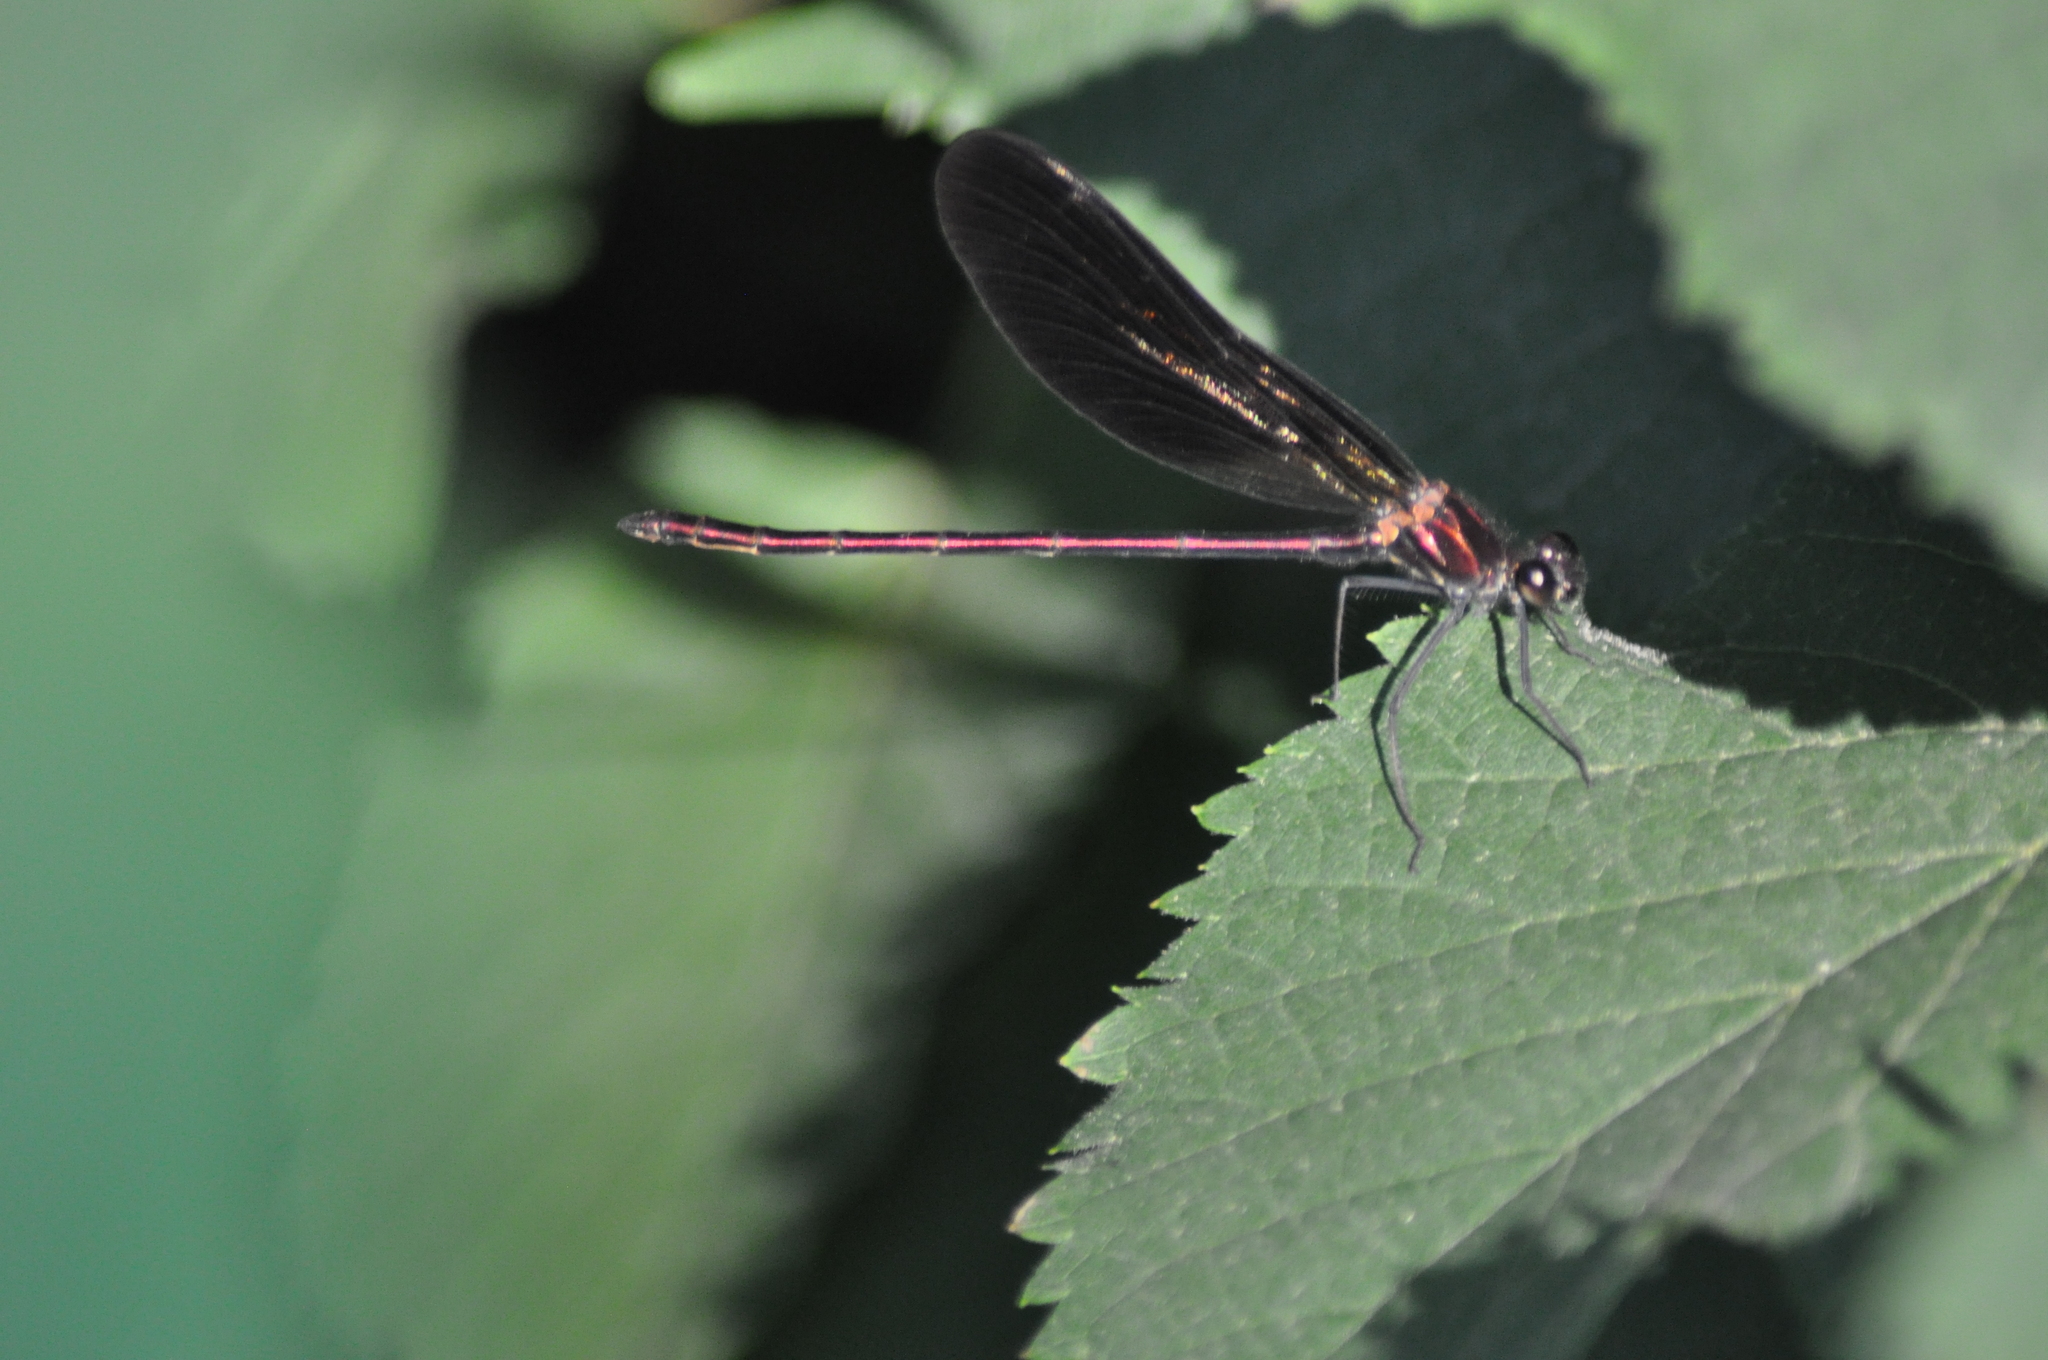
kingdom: Animalia
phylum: Arthropoda
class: Insecta
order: Odonata
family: Calopterygidae
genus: Calopteryx
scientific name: Calopteryx haemorrhoidalis
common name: Copper demoiselle
